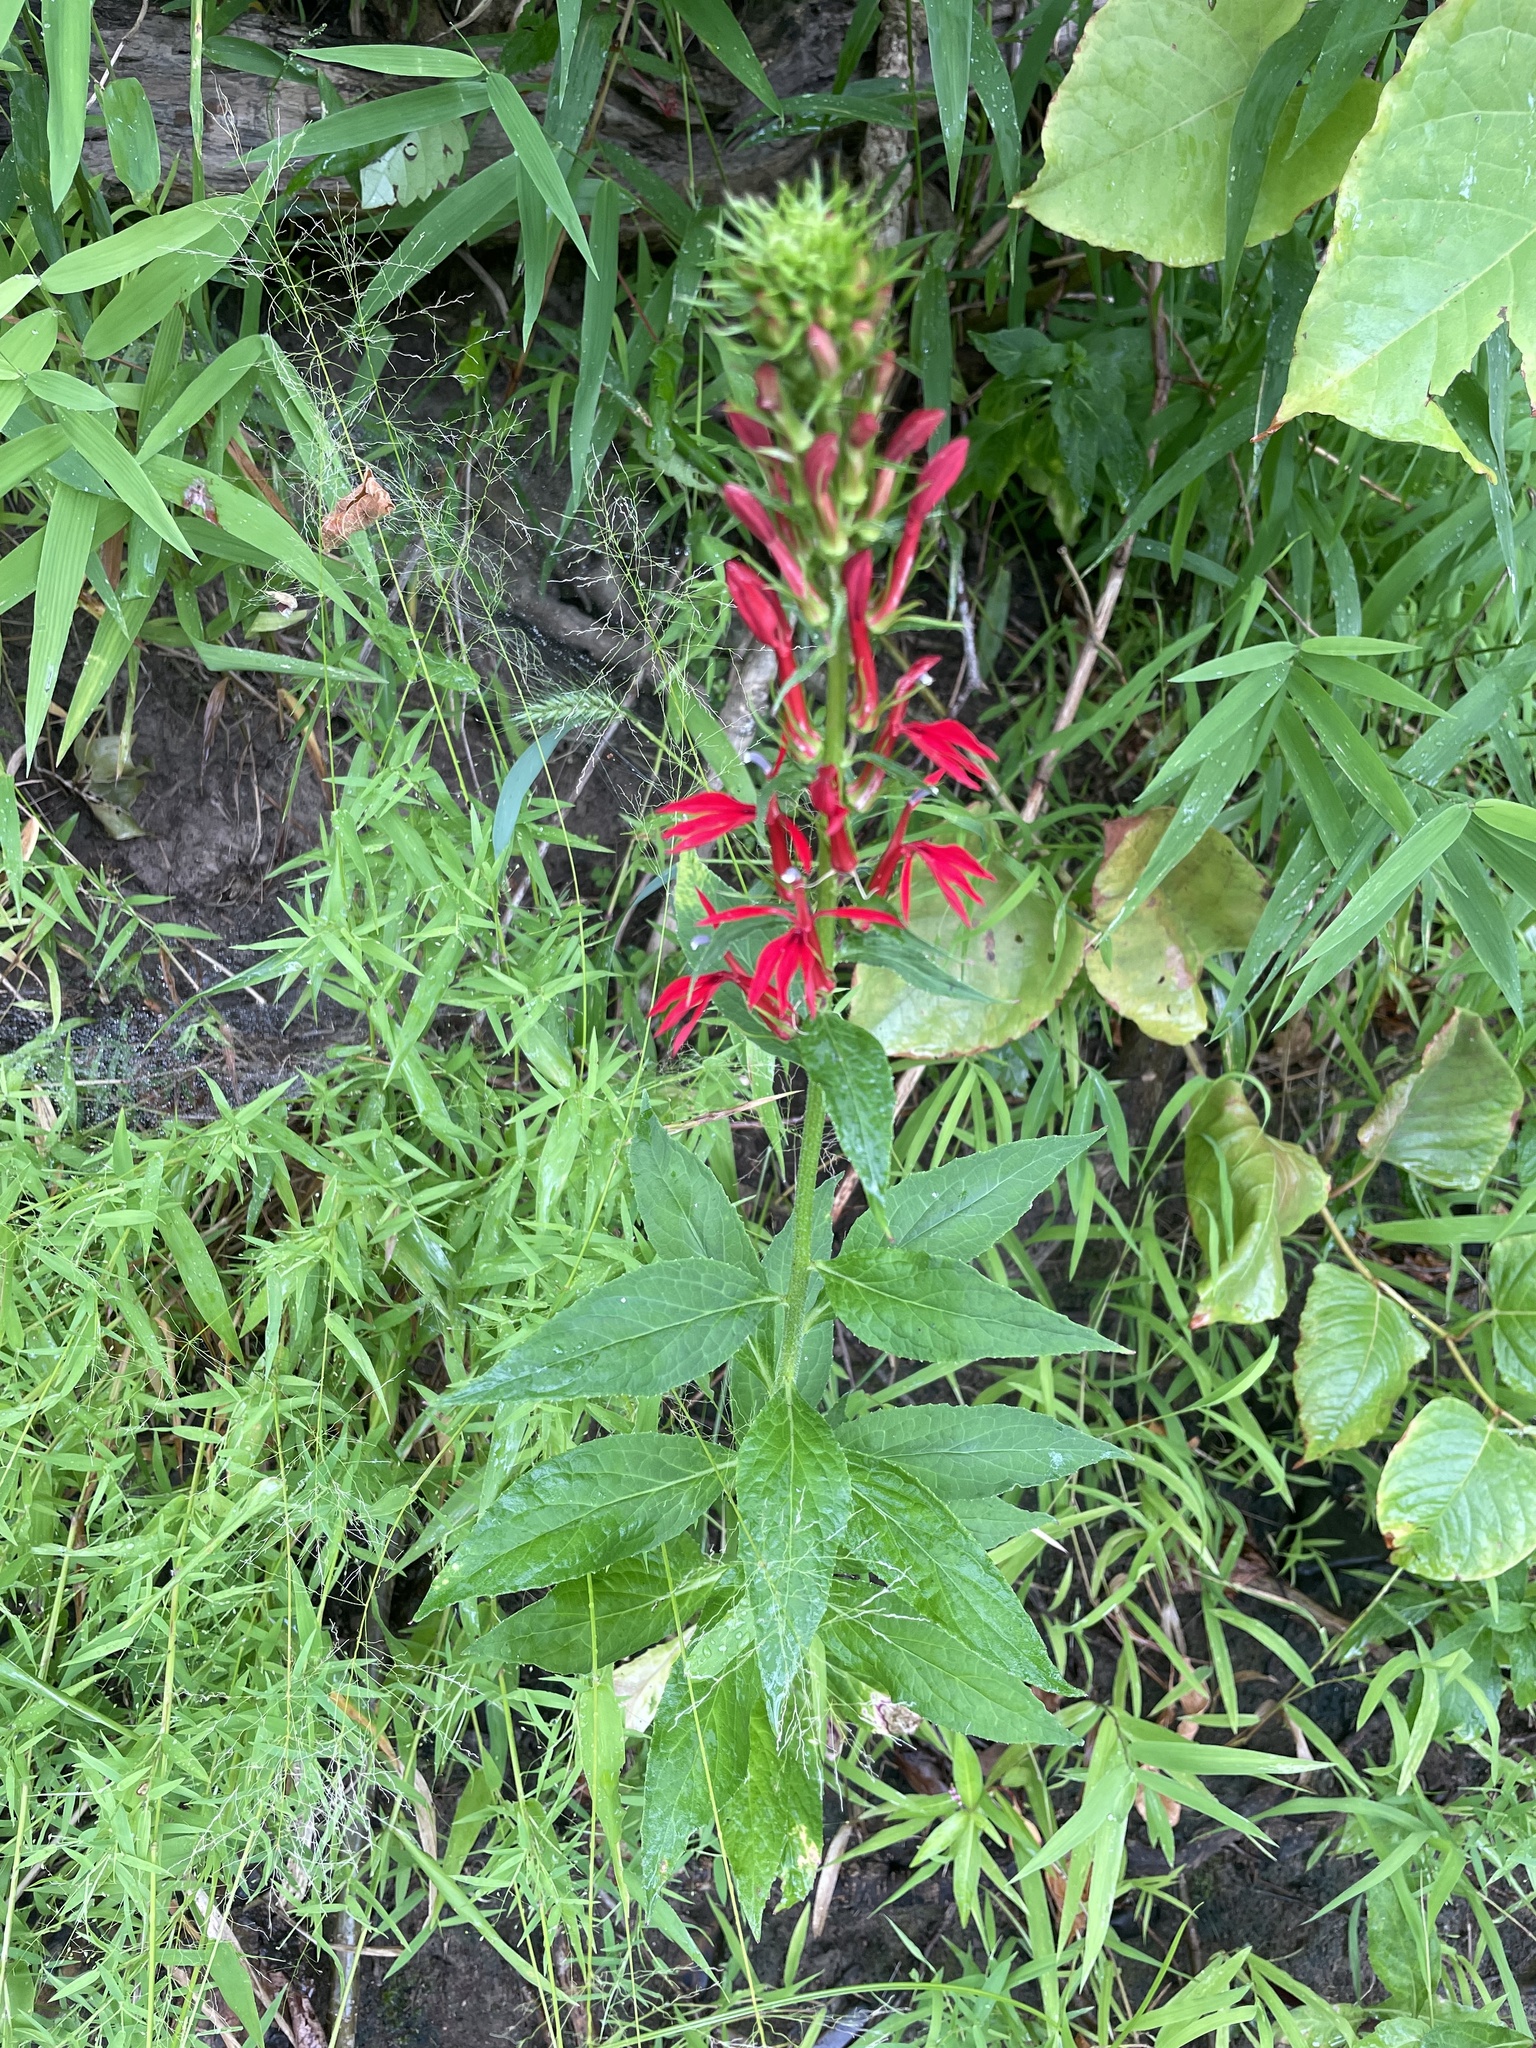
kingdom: Plantae
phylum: Tracheophyta
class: Magnoliopsida
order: Asterales
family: Campanulaceae
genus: Lobelia
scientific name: Lobelia cardinalis
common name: Cardinal flower
